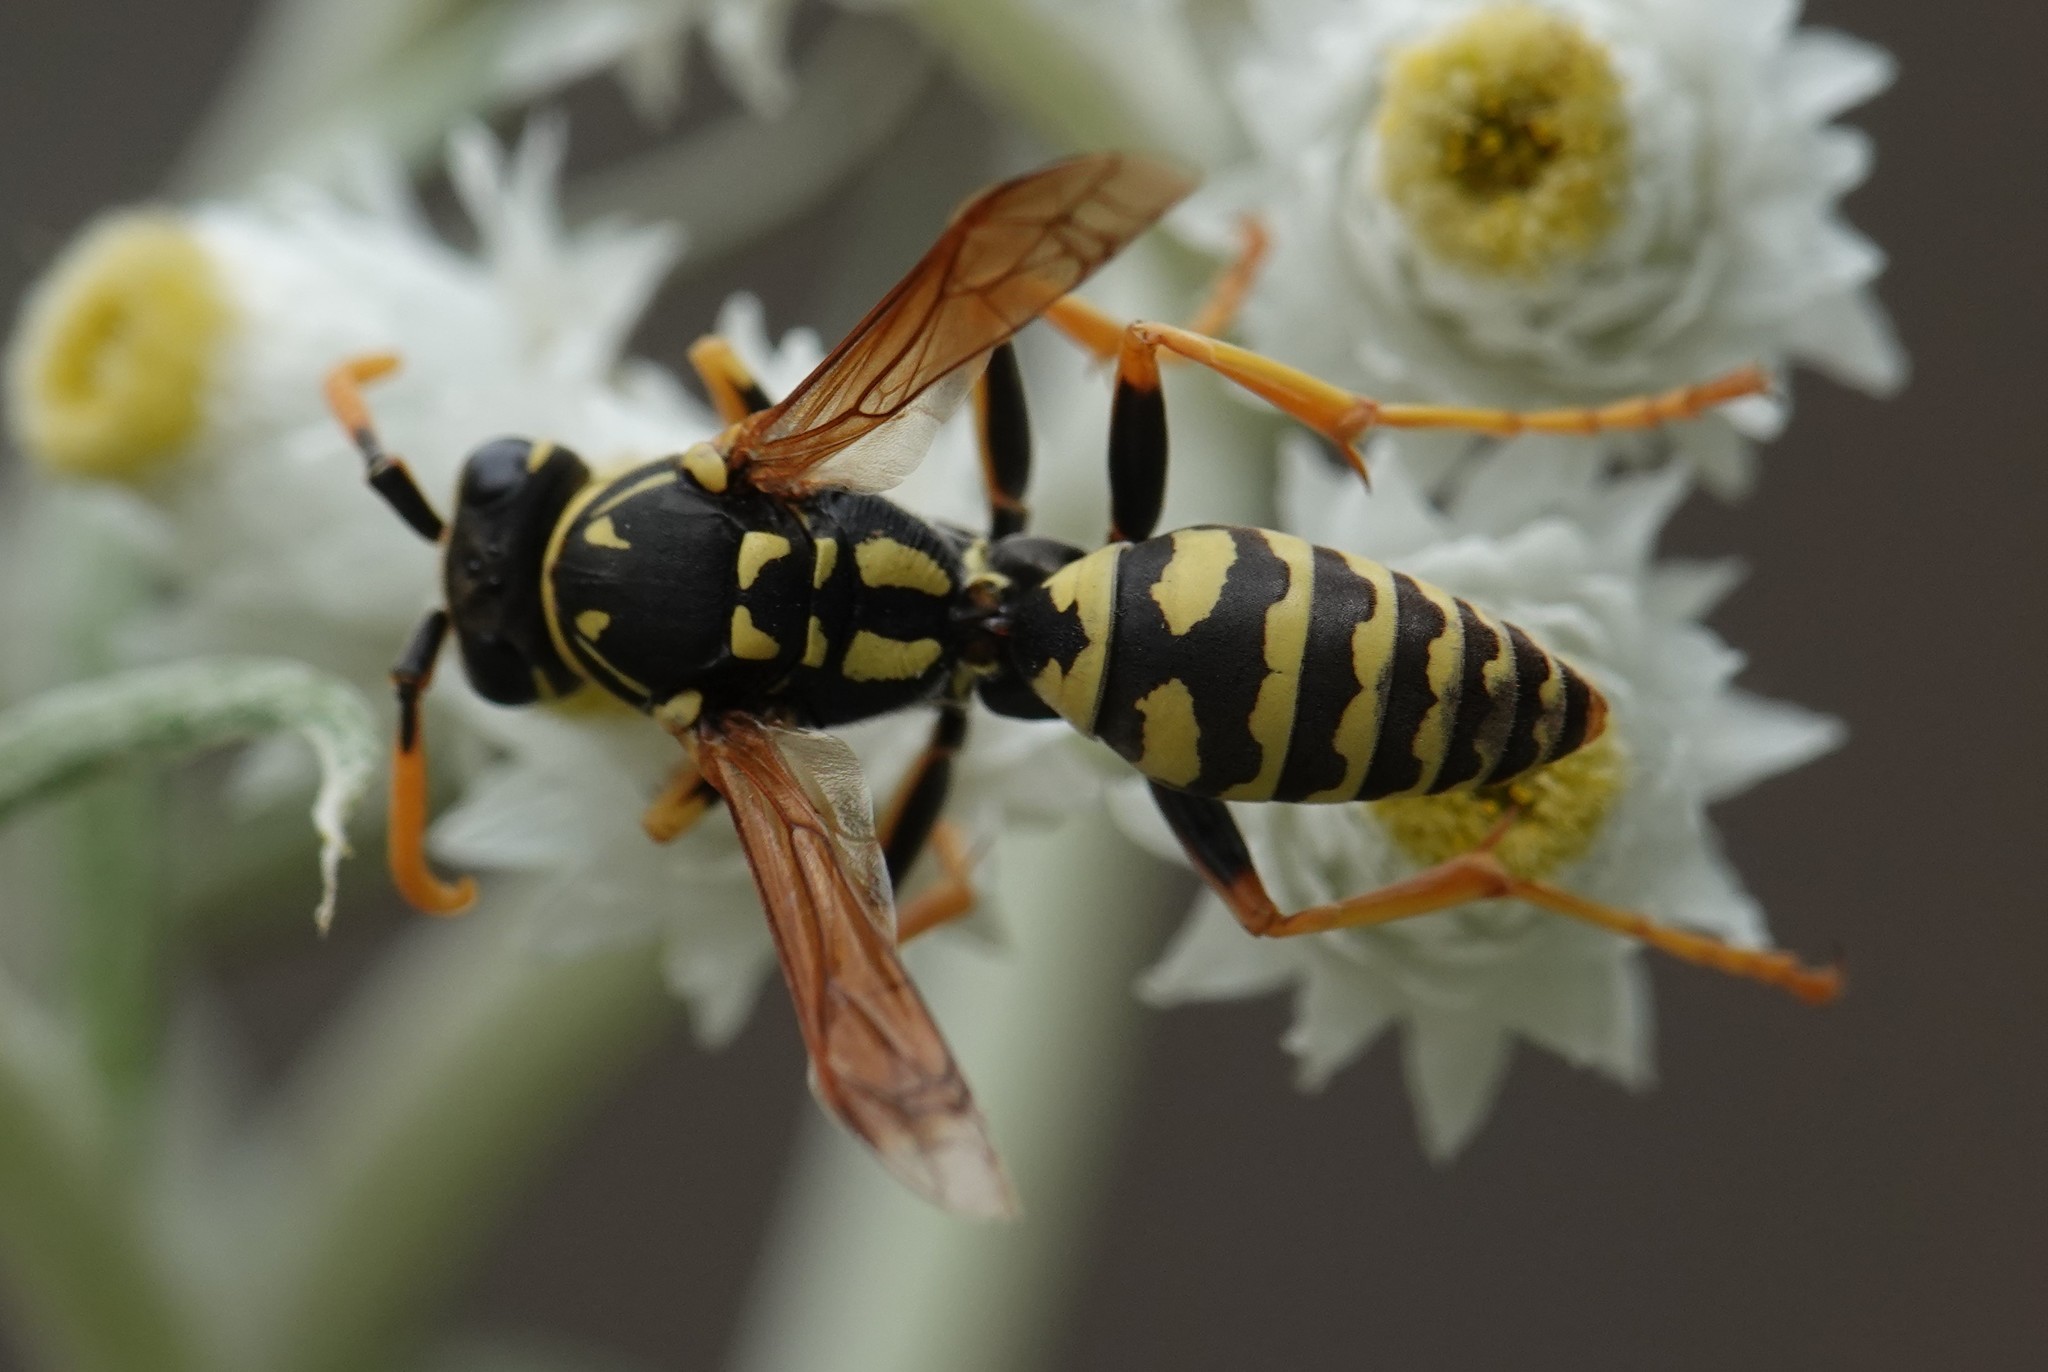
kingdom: Animalia
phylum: Arthropoda
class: Insecta
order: Hymenoptera
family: Eumenidae
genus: Polistes
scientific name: Polistes dominula
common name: Paper wasp
